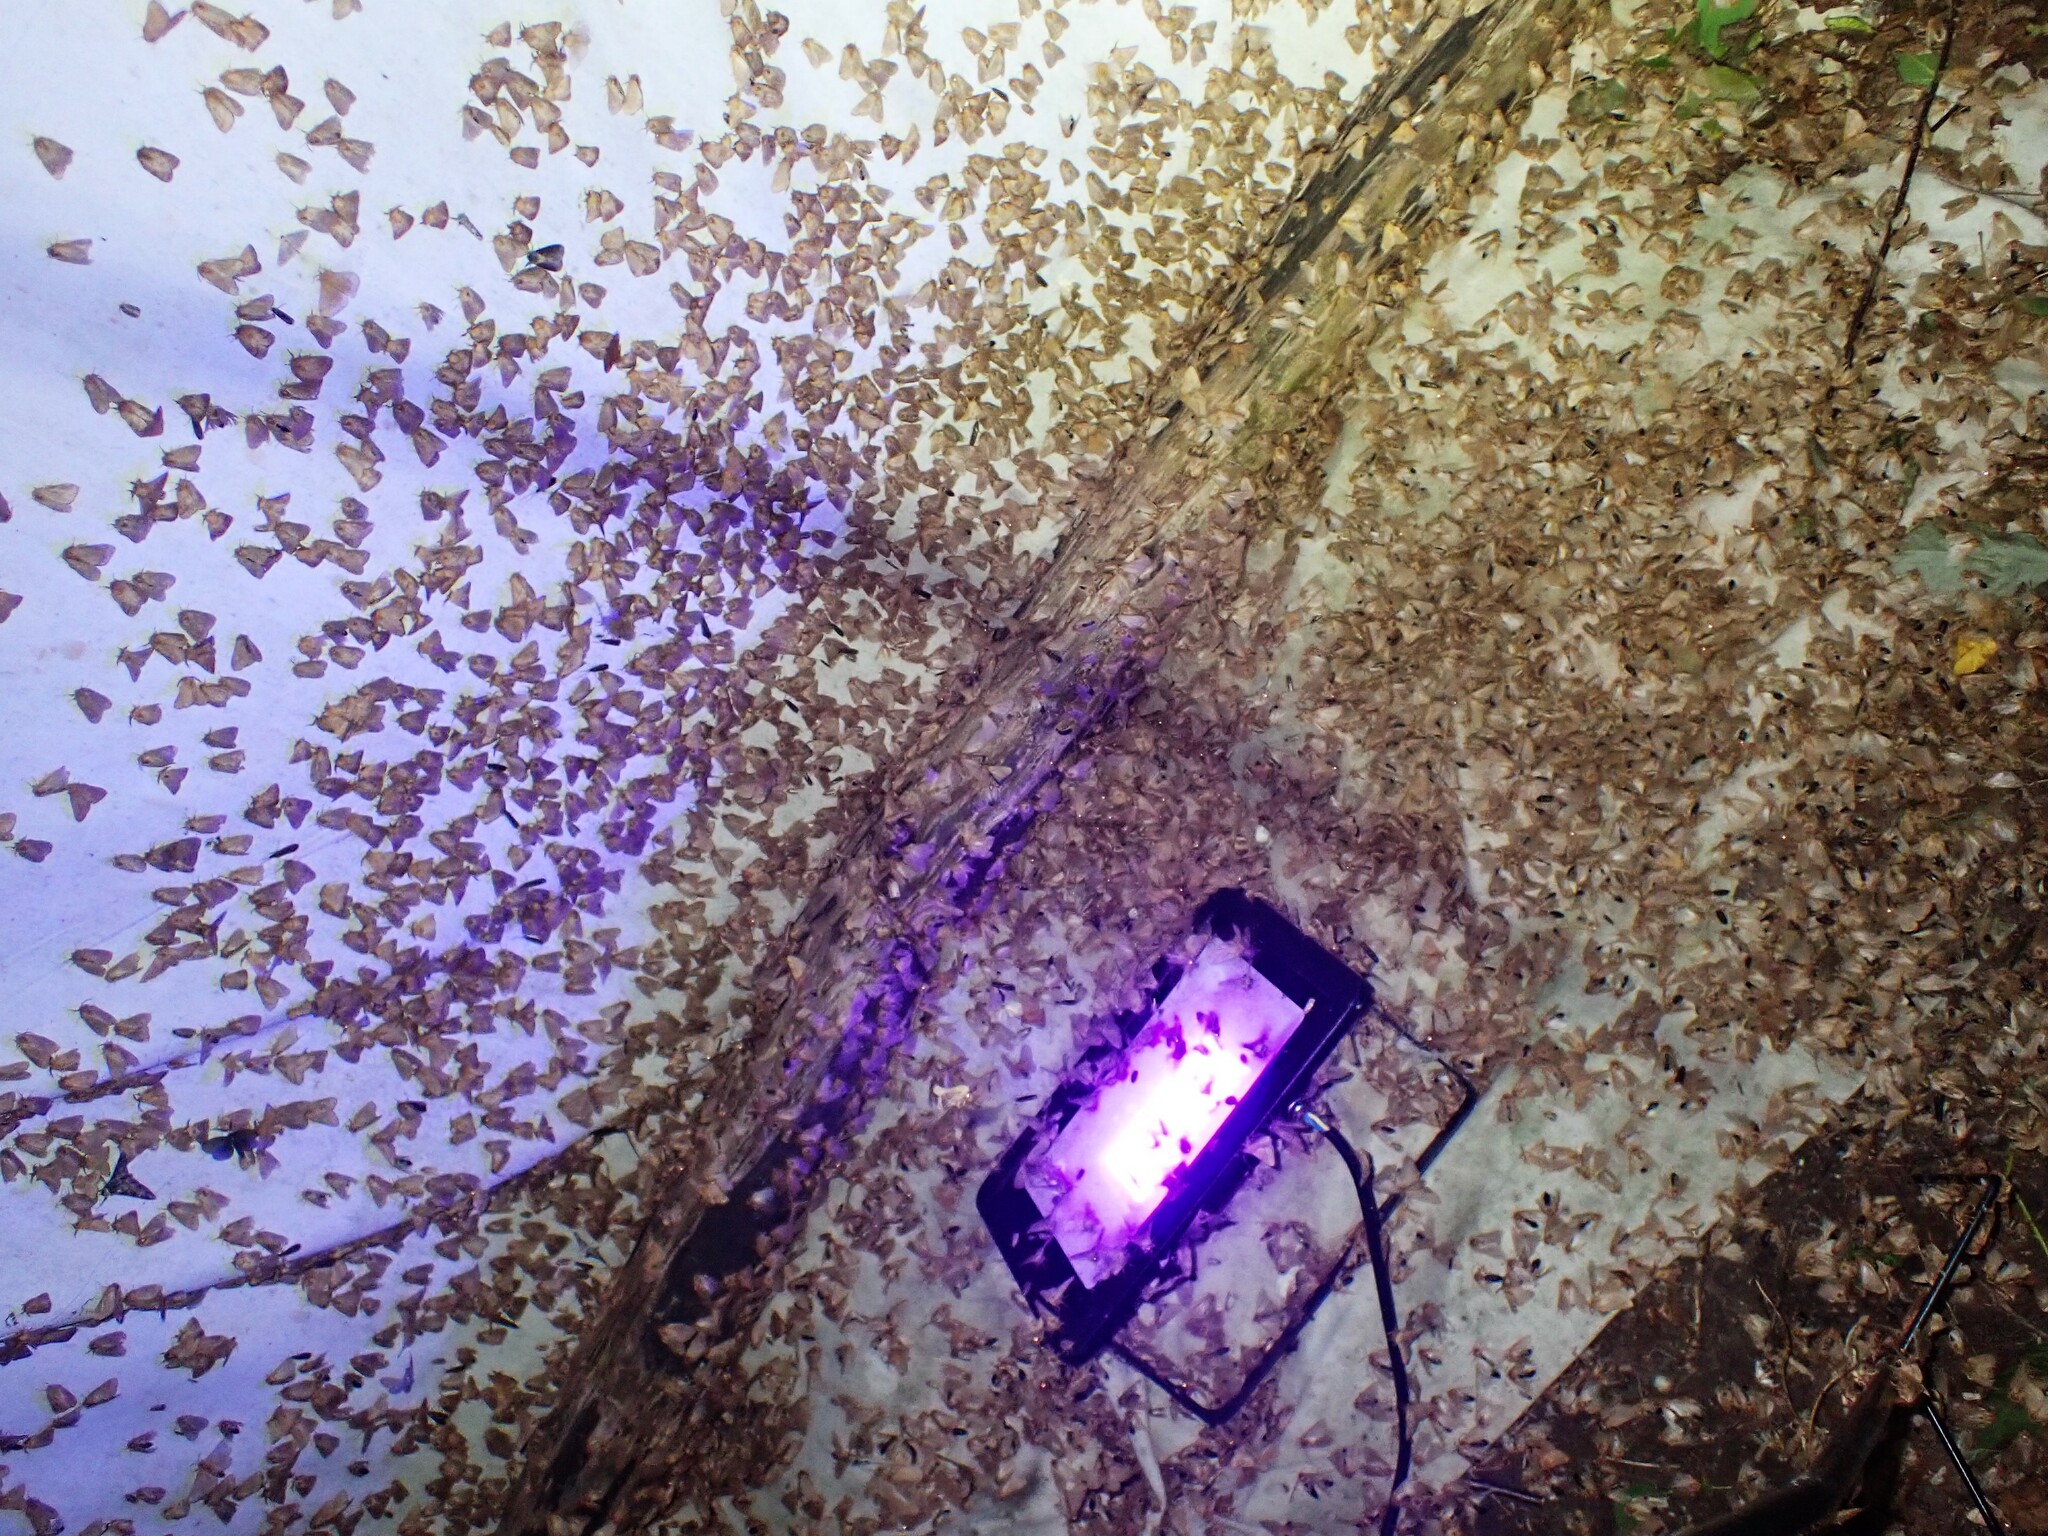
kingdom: Animalia
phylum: Arthropoda
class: Insecta
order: Lepidoptera
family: Lasiocampidae
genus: Malacosoma
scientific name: Malacosoma disstria
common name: Forest tent caterpillar
